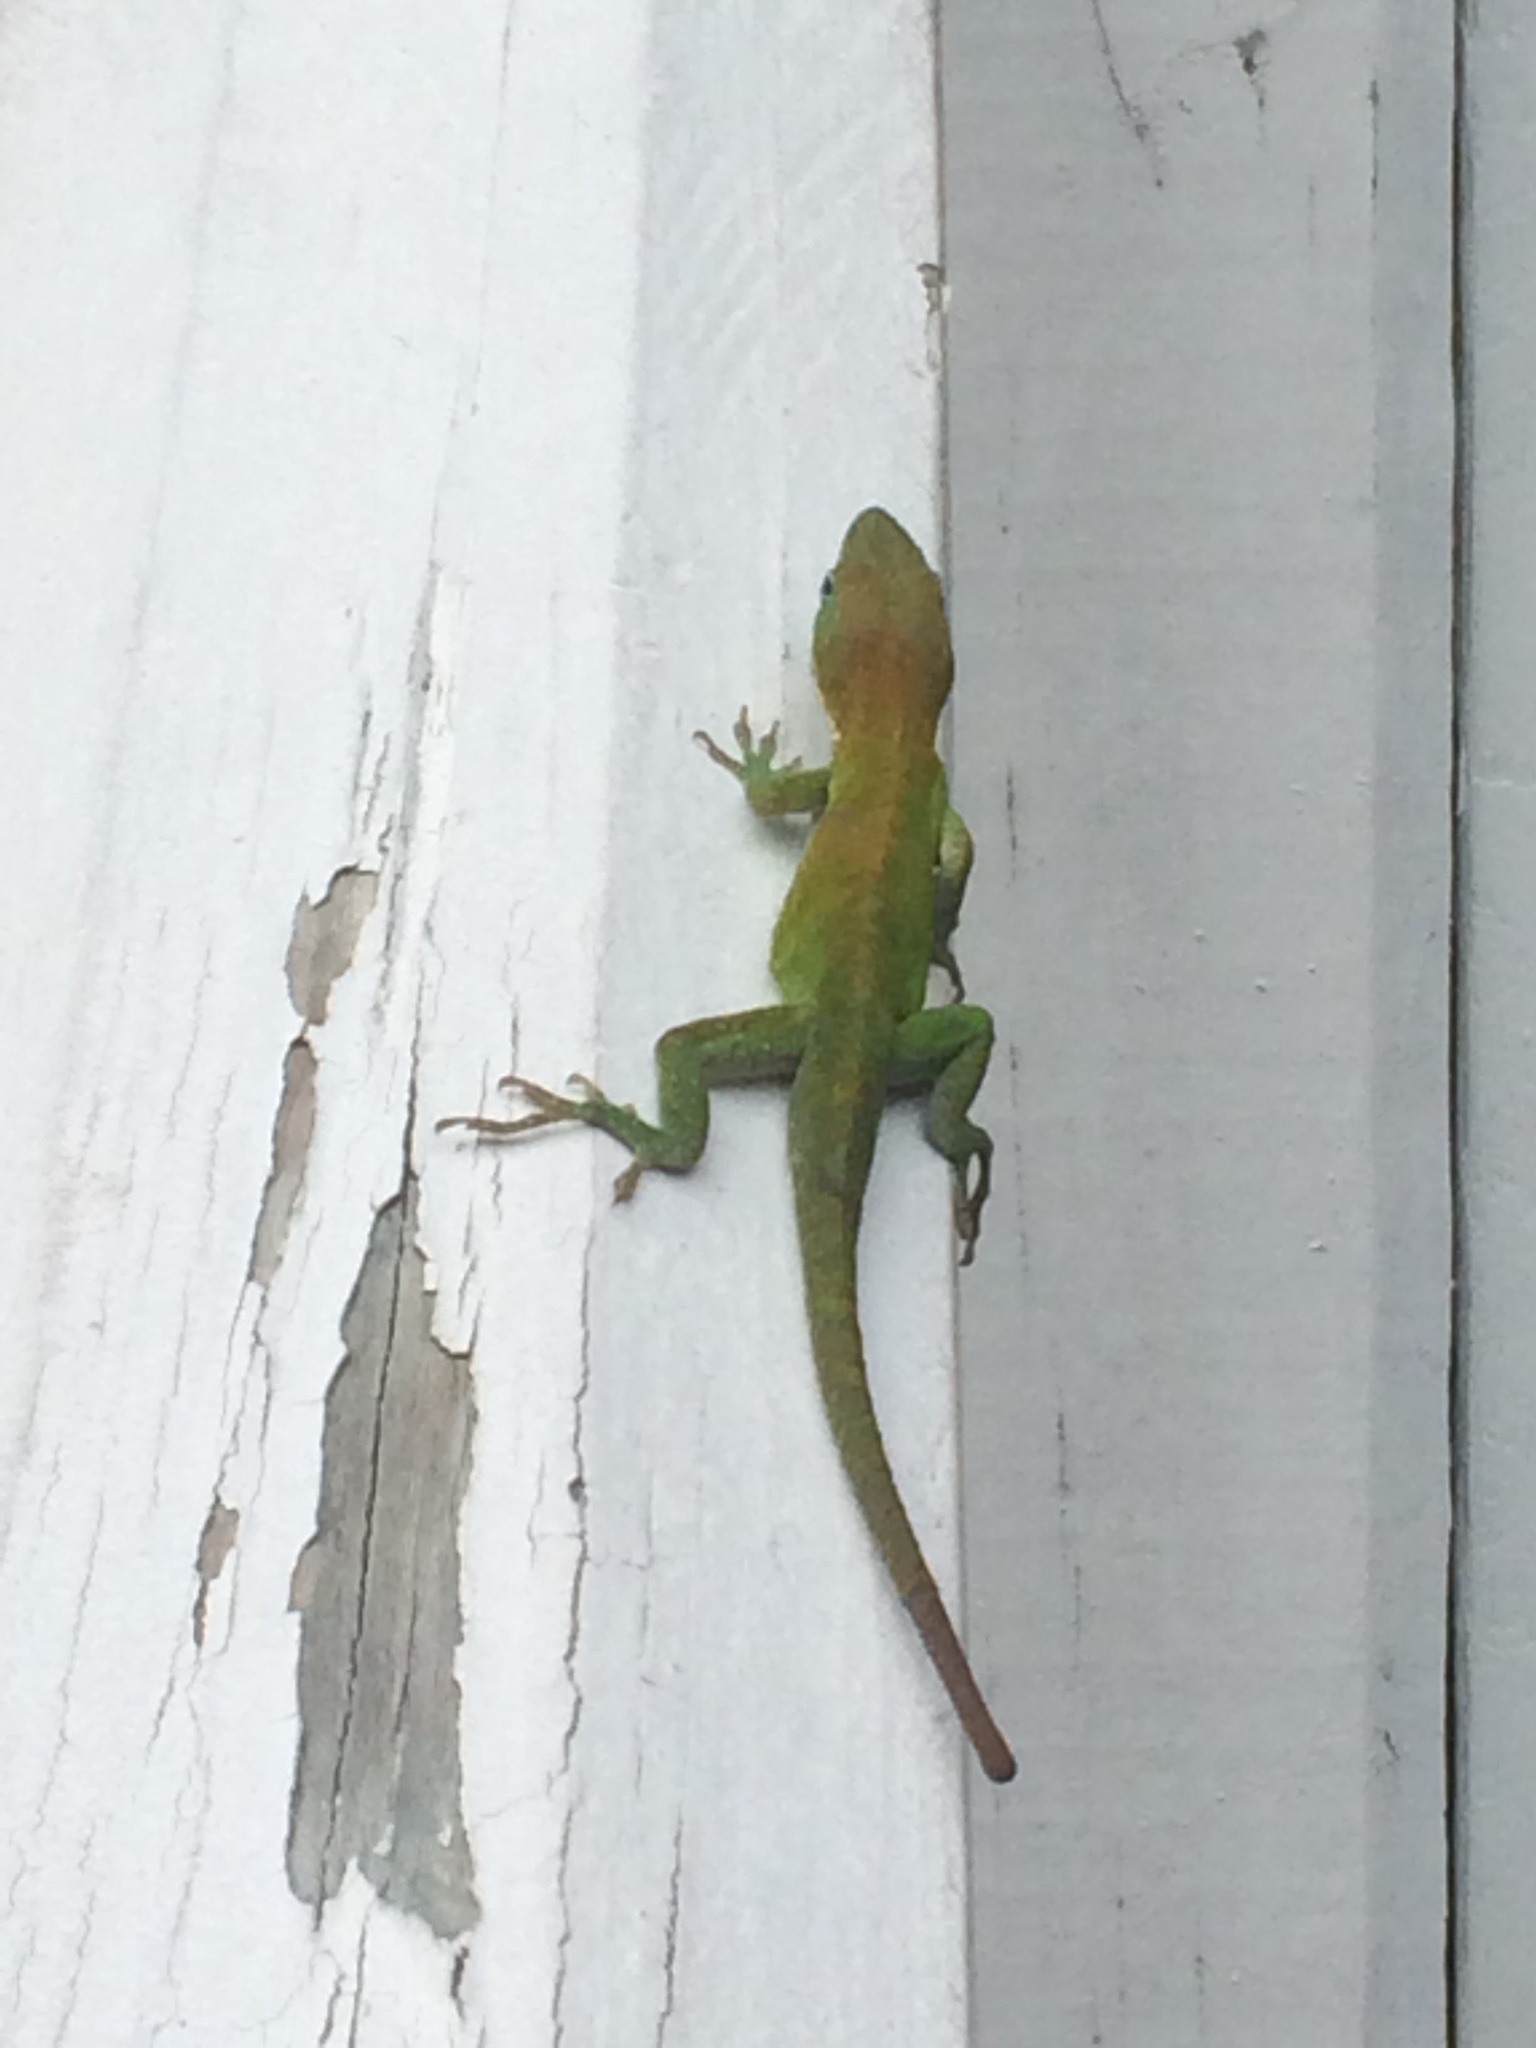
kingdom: Animalia
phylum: Chordata
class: Squamata
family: Dactyloidae
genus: Anolis
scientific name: Anolis carolinensis
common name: Green anole
